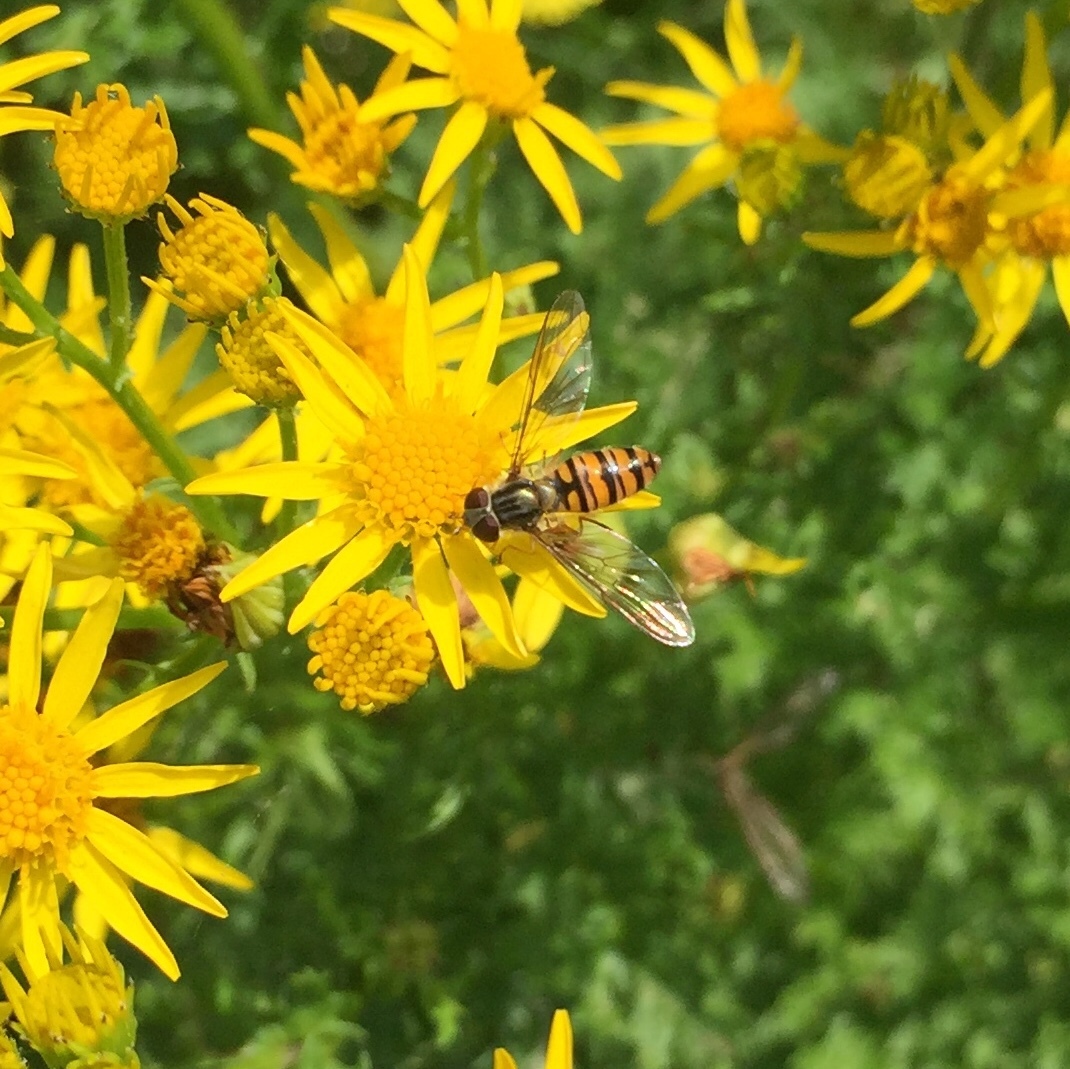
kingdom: Animalia
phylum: Arthropoda
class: Insecta
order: Diptera
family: Syrphidae
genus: Episyrphus
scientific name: Episyrphus balteatus
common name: Marmalade hoverfly
